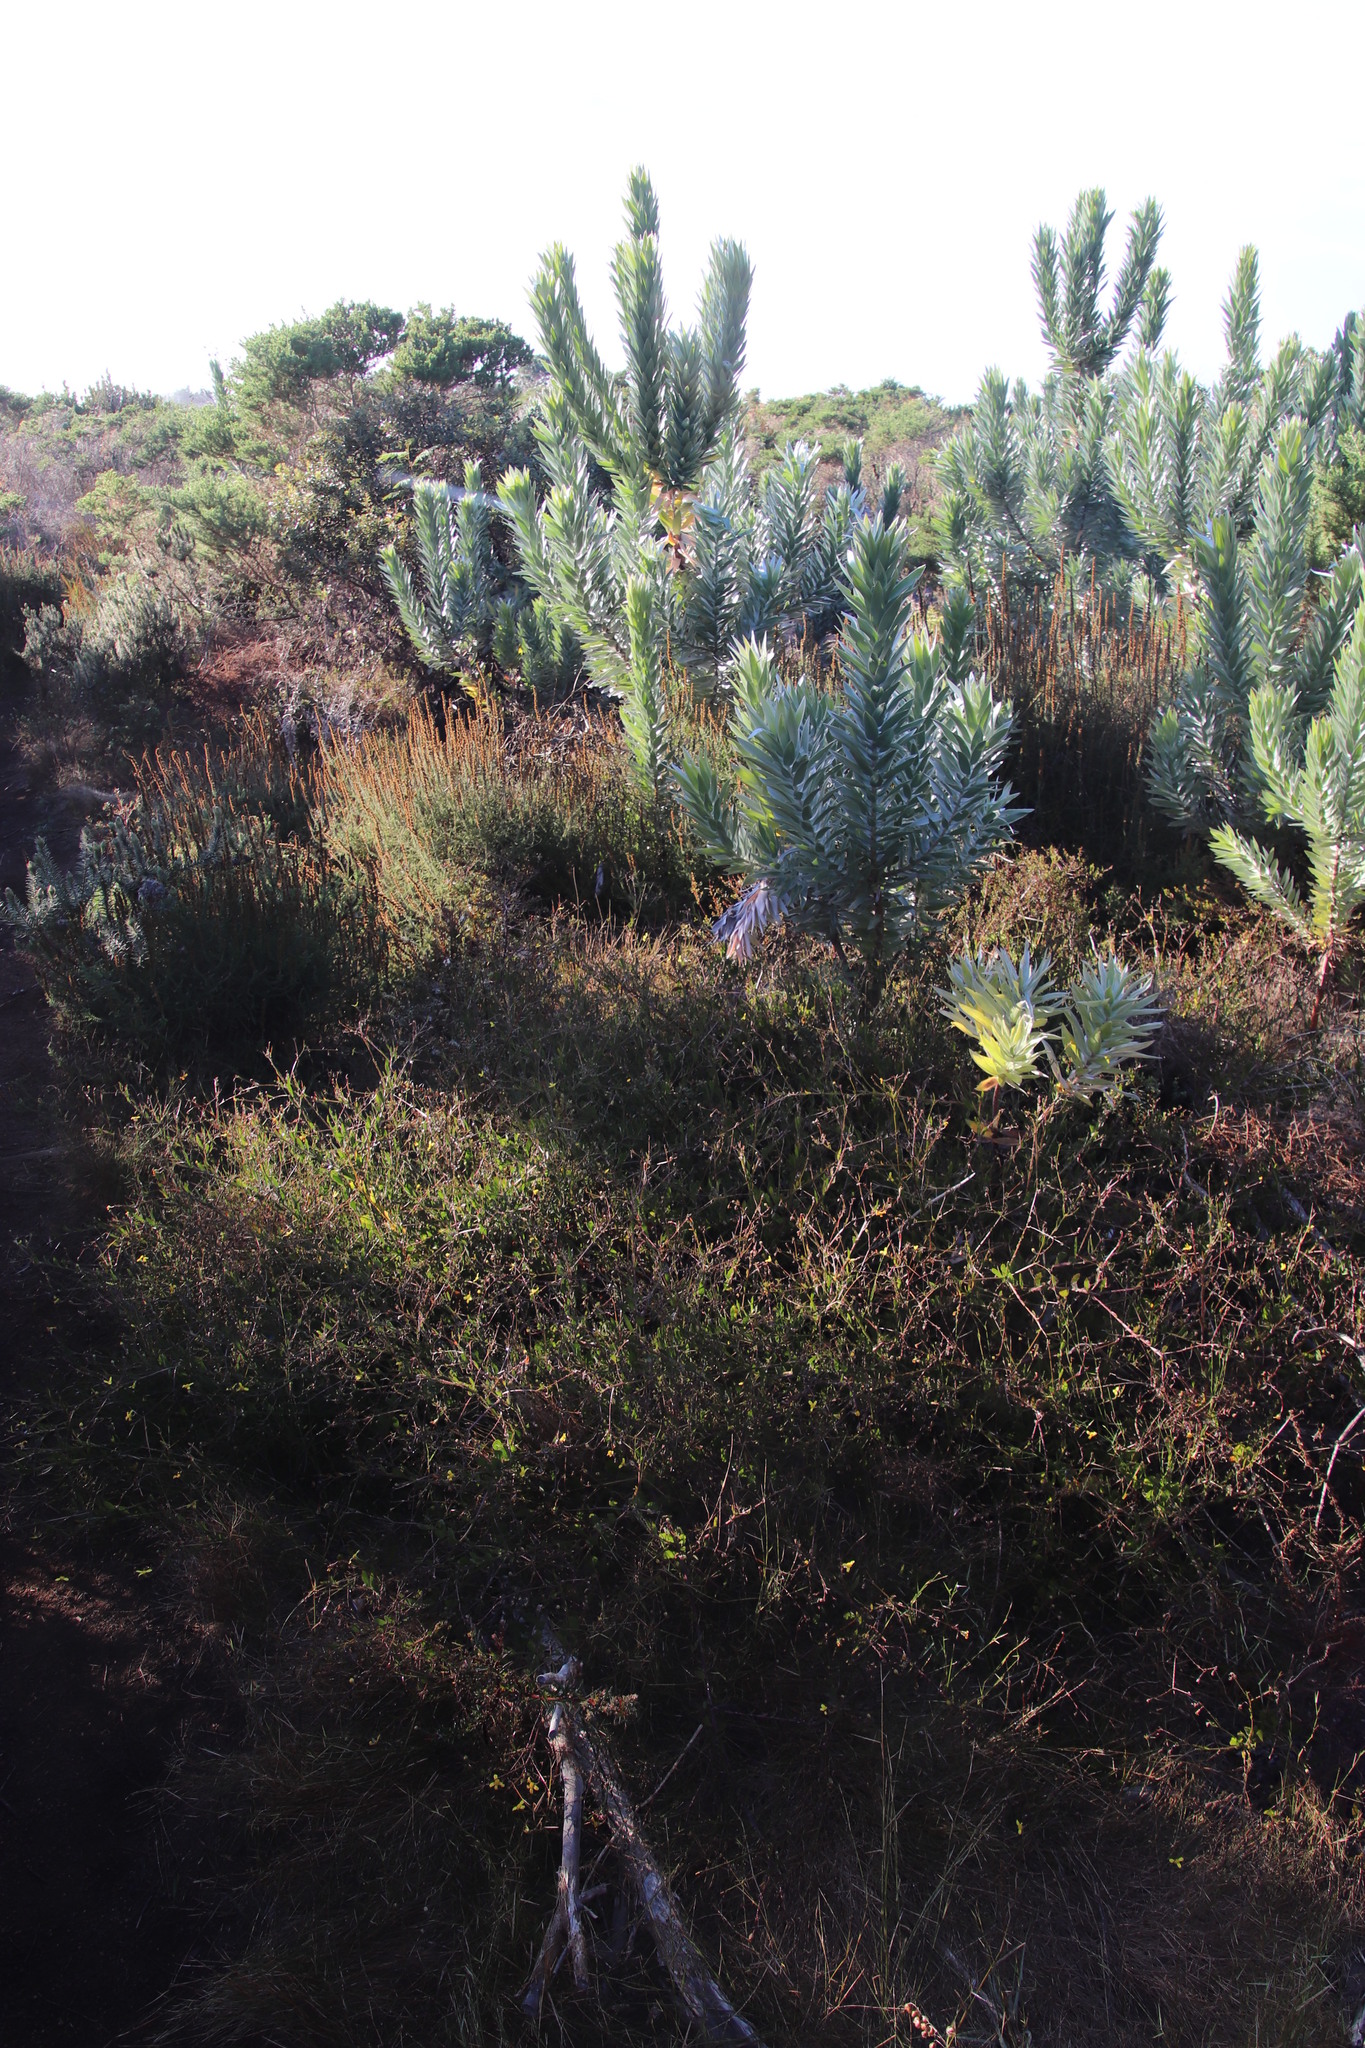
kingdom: Plantae
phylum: Tracheophyta
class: Magnoliopsida
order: Asterales
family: Asteraceae
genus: Osteospermum
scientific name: Osteospermum ciliatum
